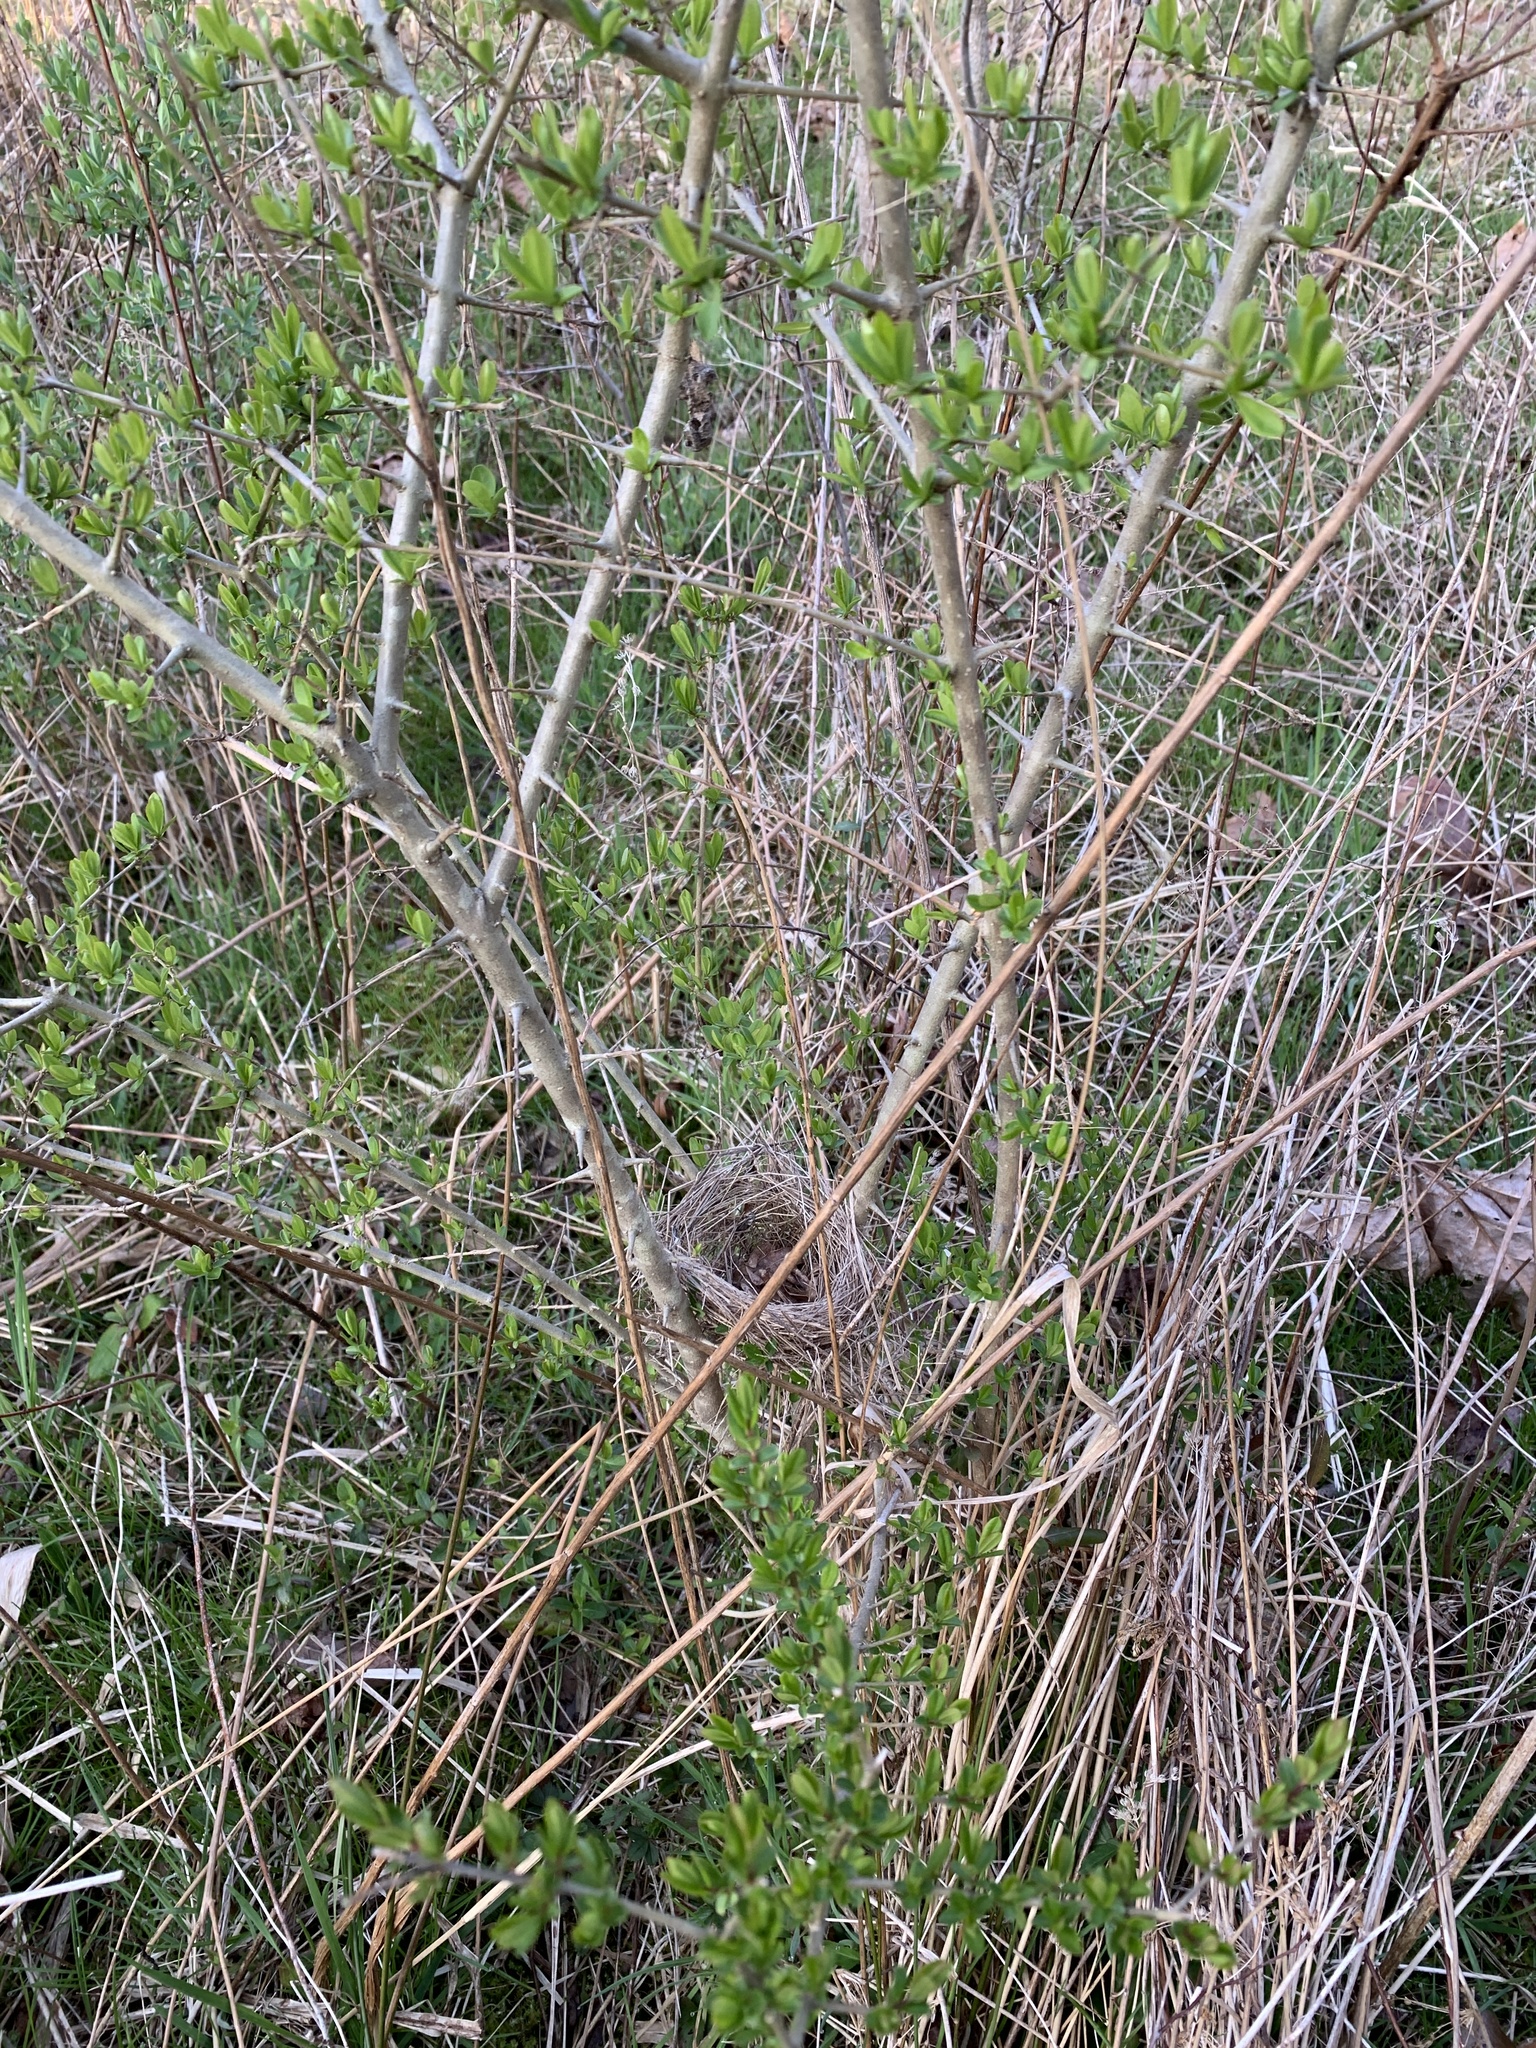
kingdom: Plantae
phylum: Tracheophyta
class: Magnoliopsida
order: Lamiales
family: Oleaceae
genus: Ligustrum
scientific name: Ligustrum obtusifolium
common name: Border privet
